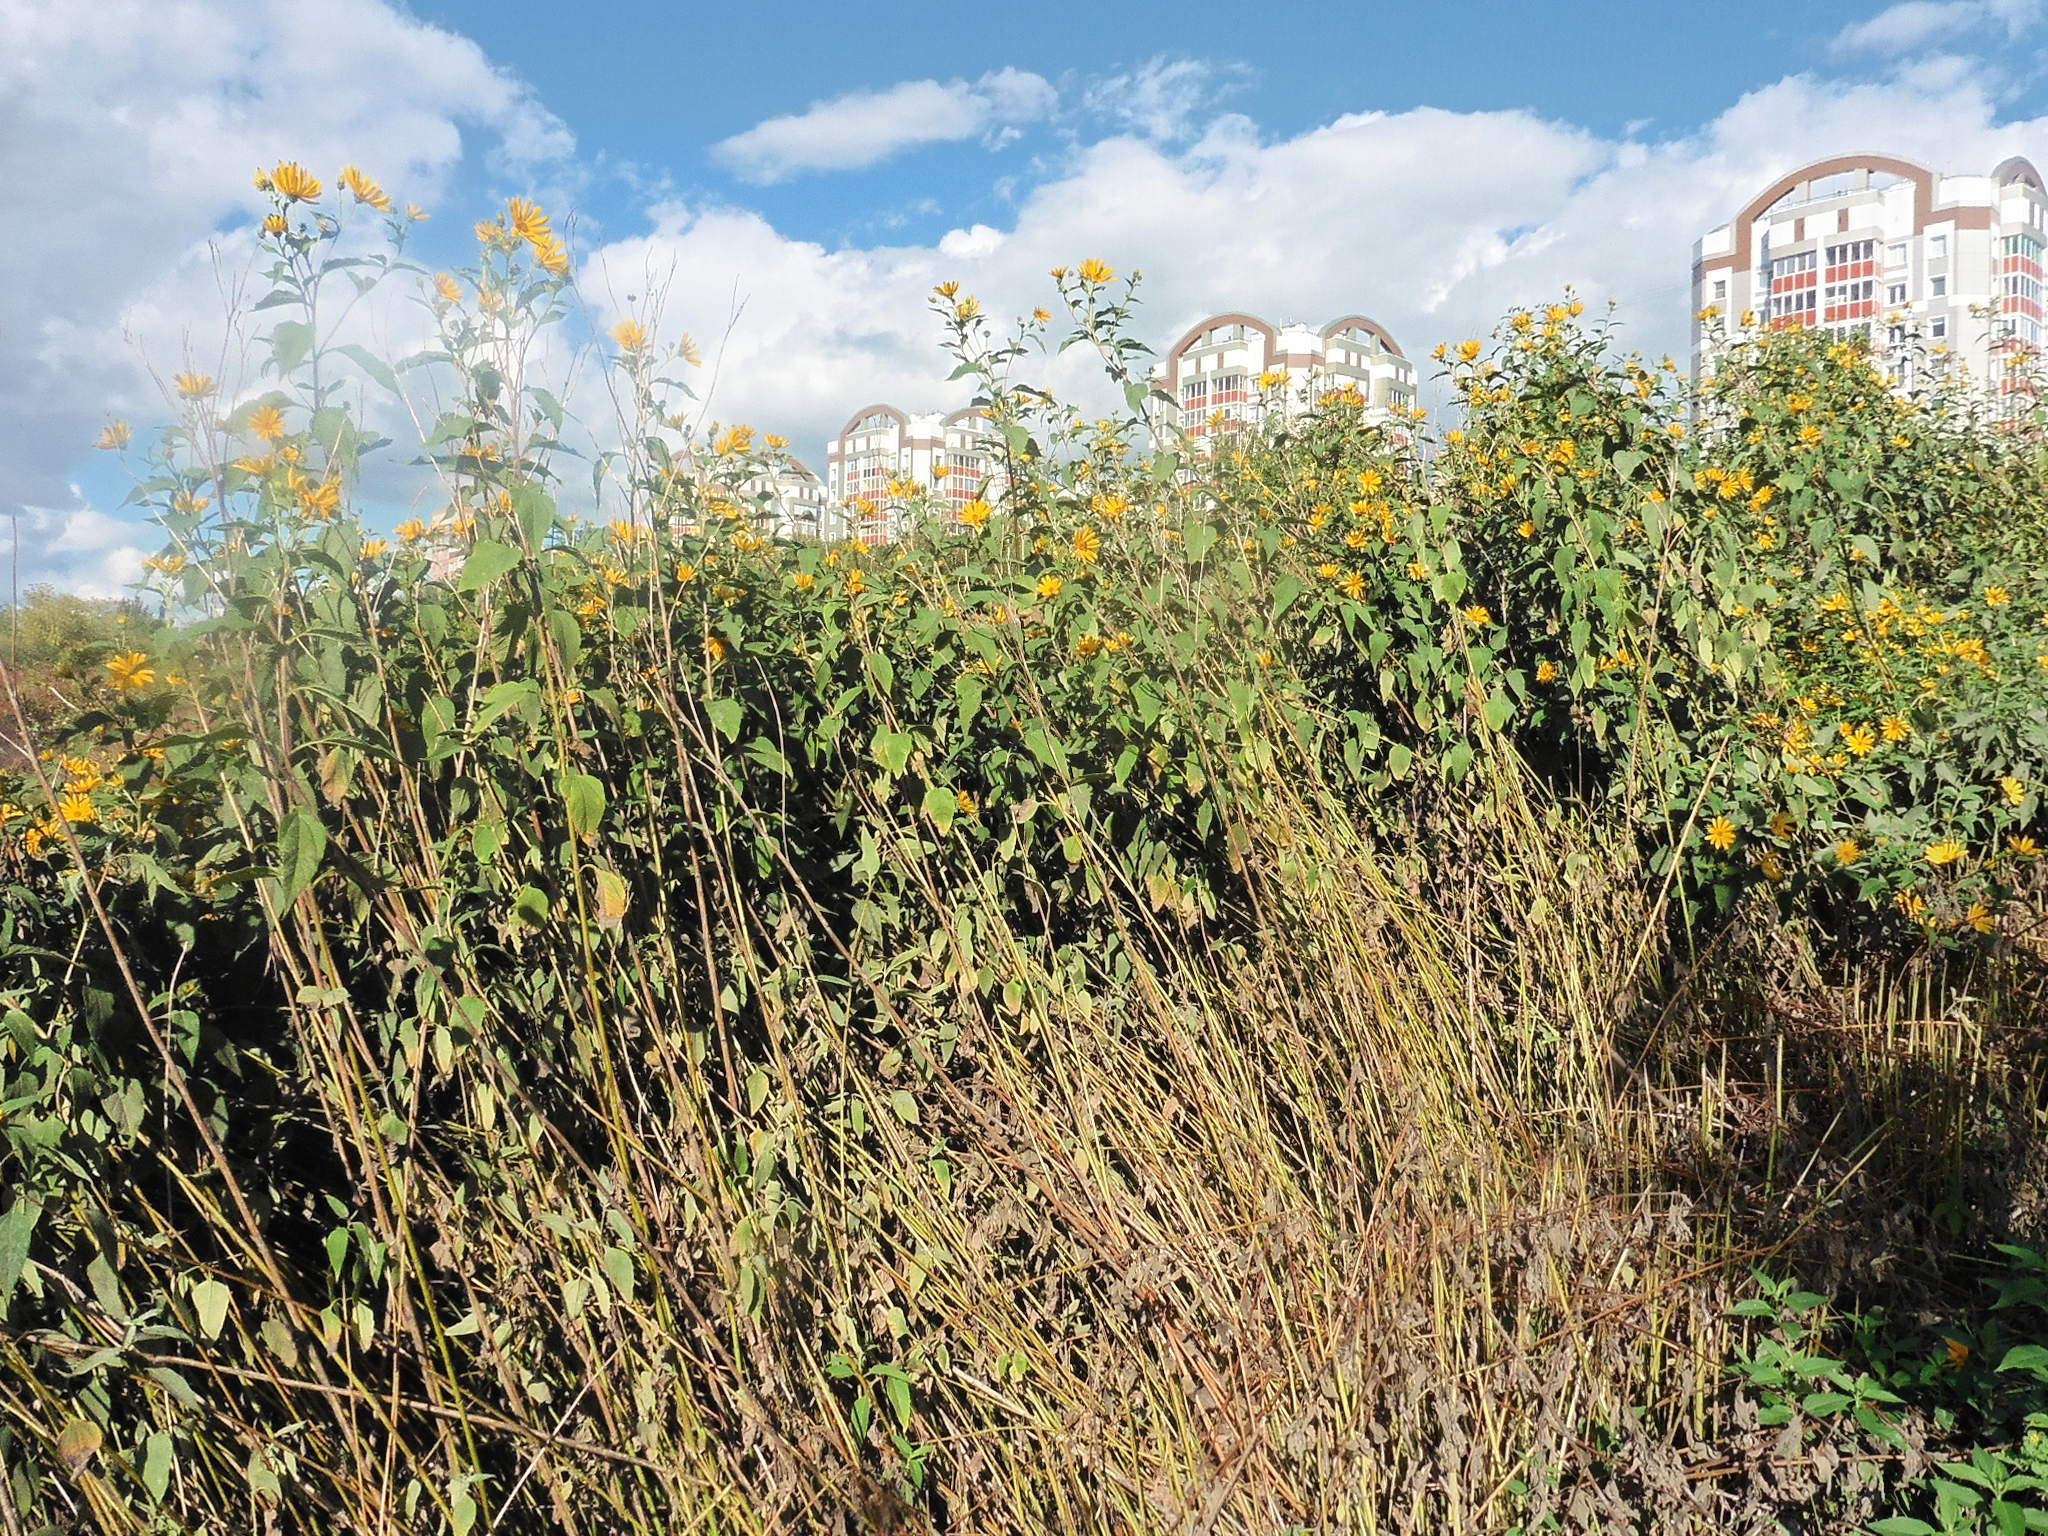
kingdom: Plantae
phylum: Tracheophyta
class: Magnoliopsida
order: Asterales
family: Asteraceae
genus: Helianthus
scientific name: Helianthus tuberosus
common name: Jerusalem artichoke
